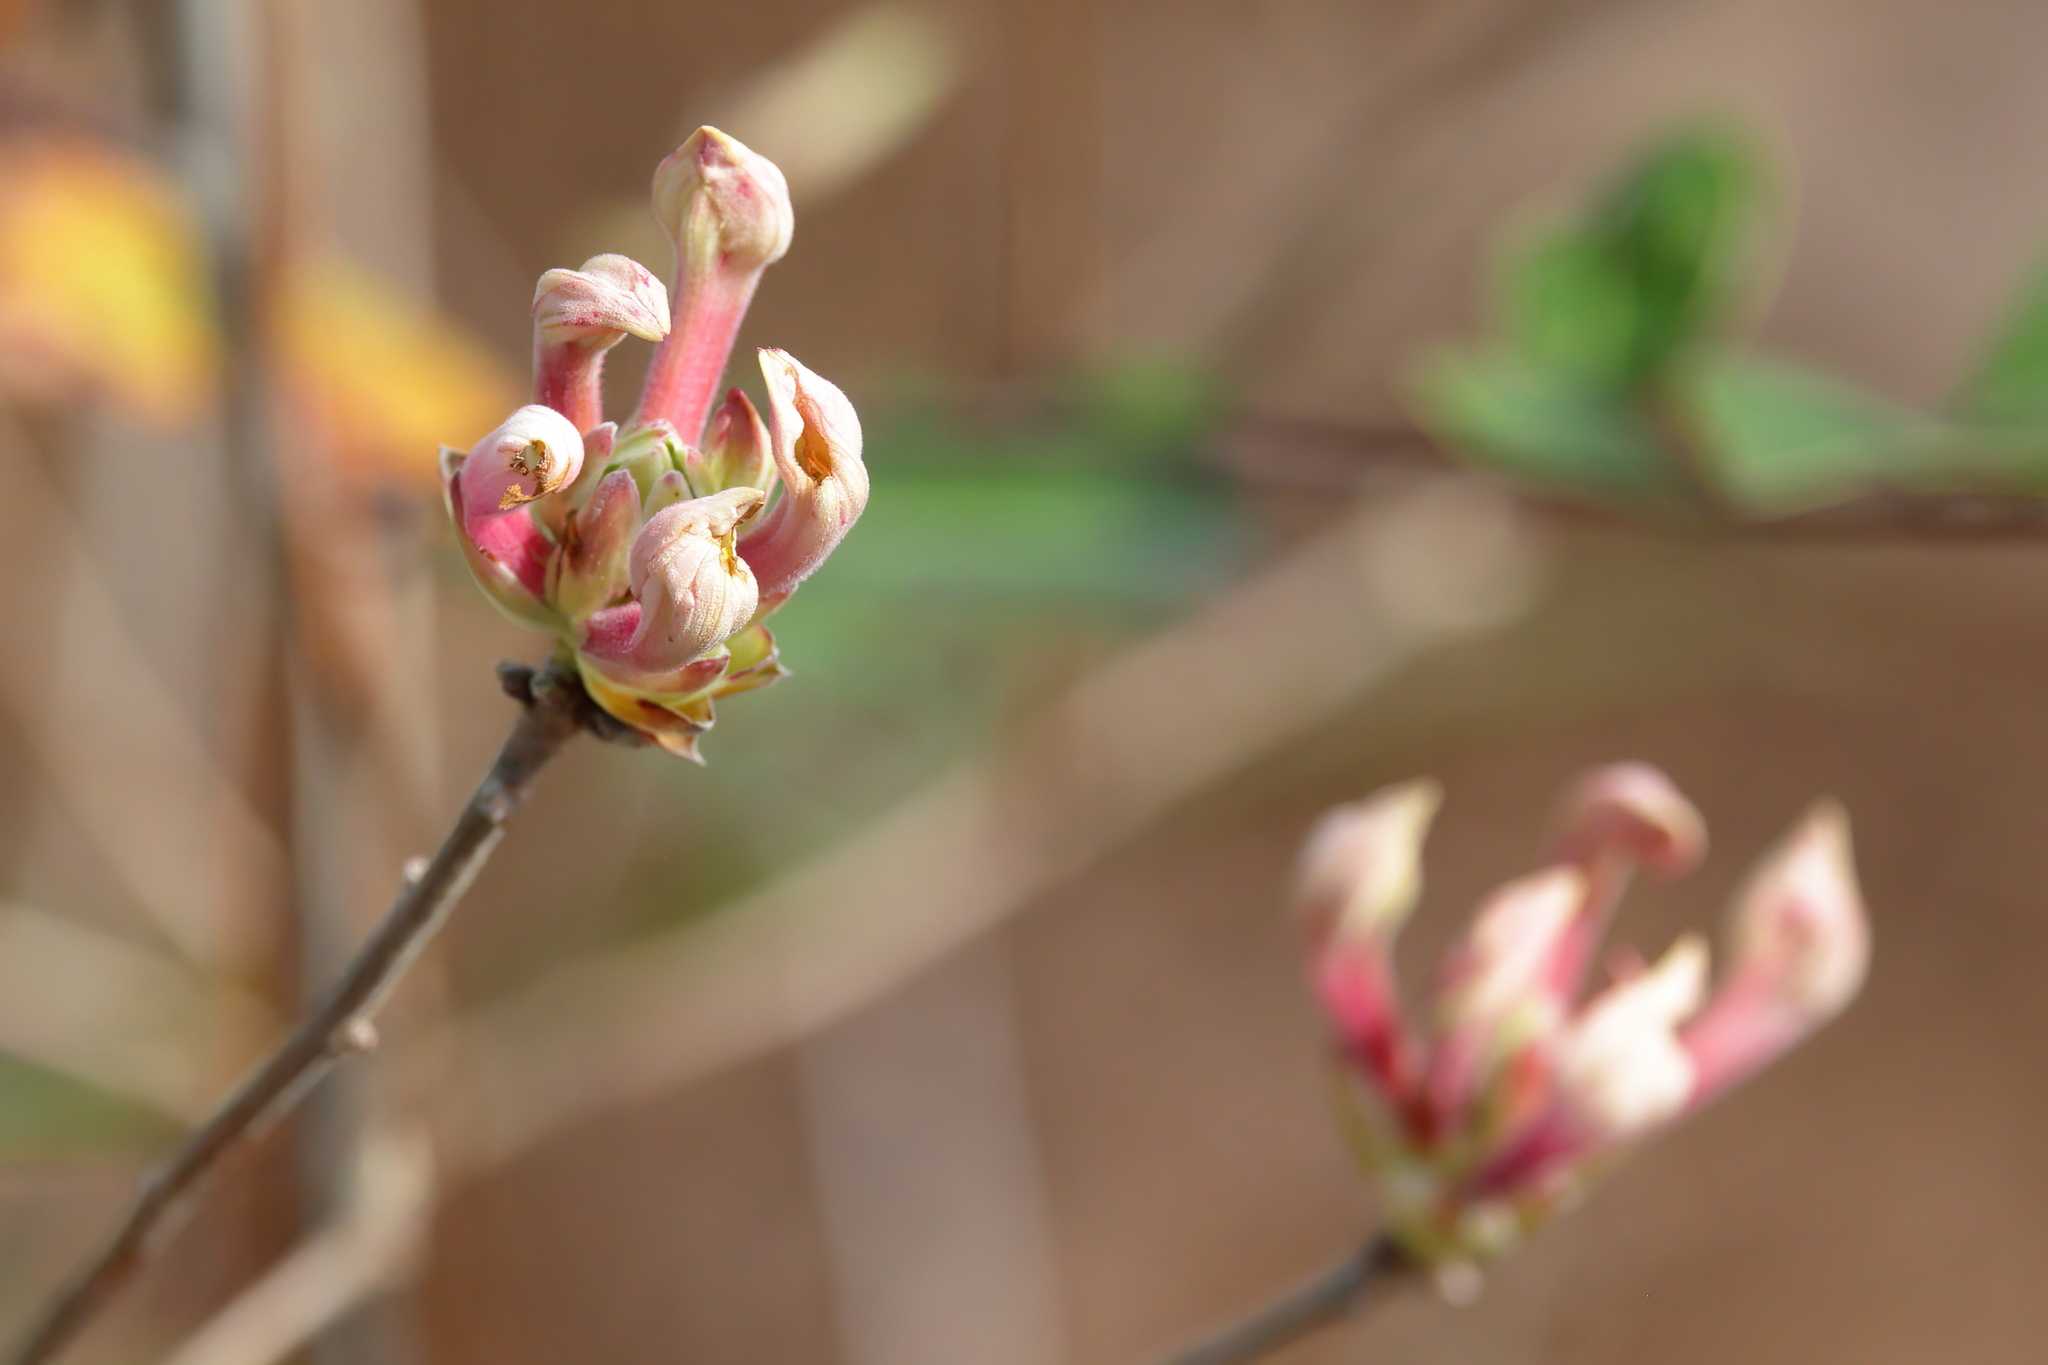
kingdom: Plantae
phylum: Tracheophyta
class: Magnoliopsida
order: Ericales
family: Ericaceae
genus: Rhododendron
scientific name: Rhododendron canescens
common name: Mountain azalea
